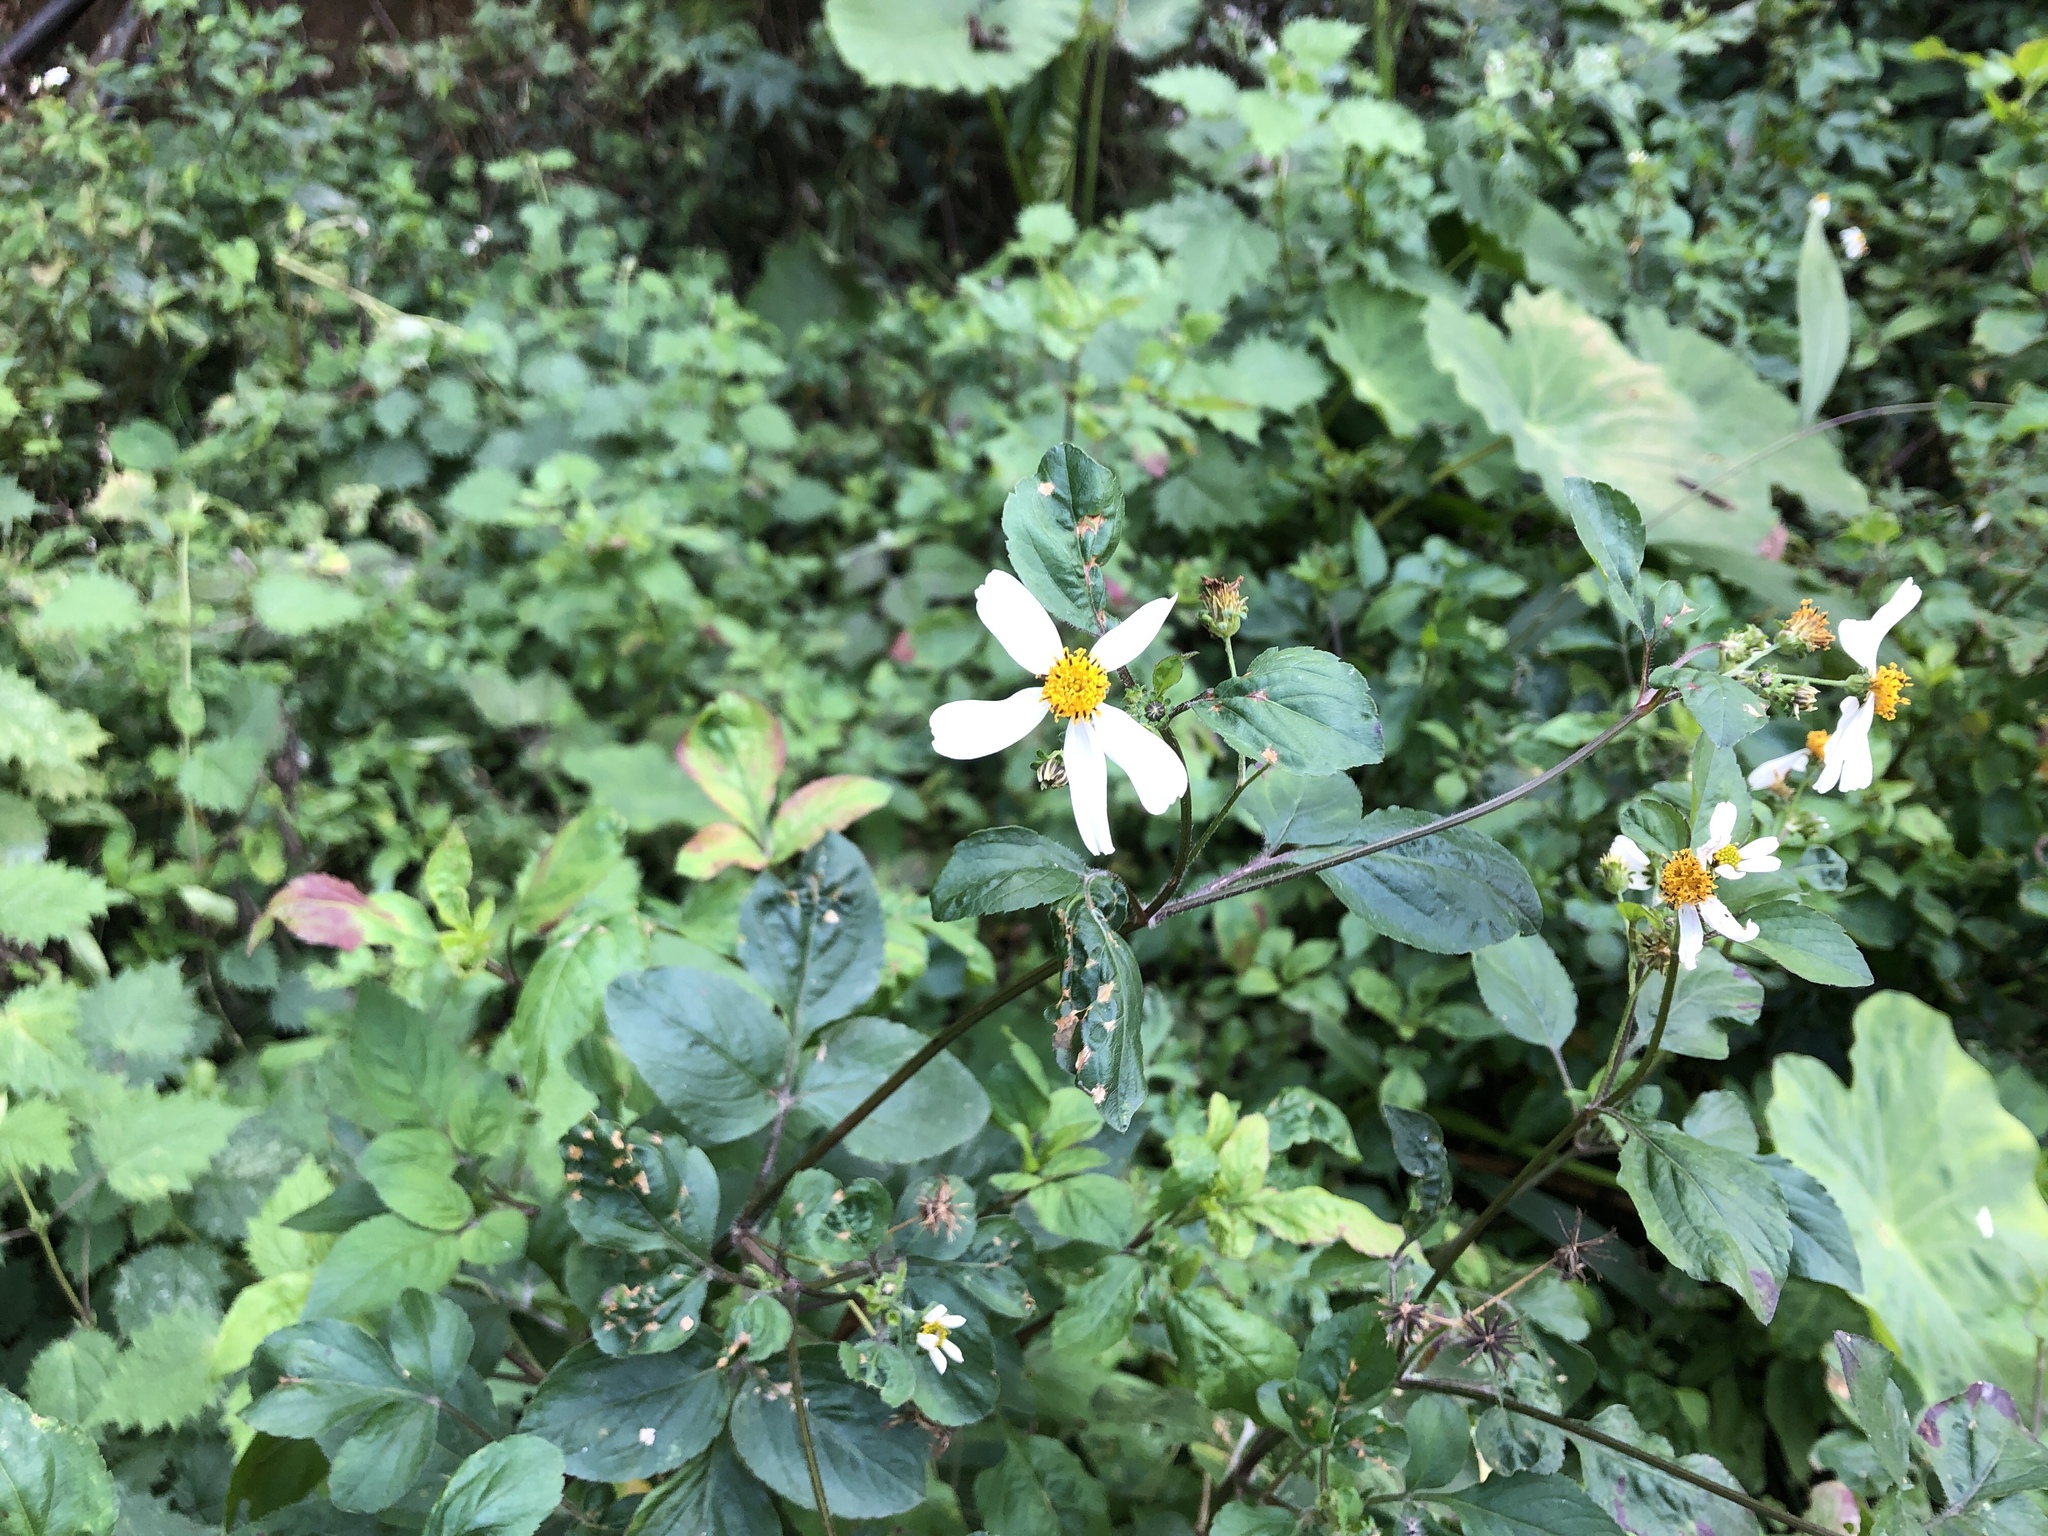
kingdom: Plantae
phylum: Tracheophyta
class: Magnoliopsida
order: Asterales
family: Asteraceae
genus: Bidens
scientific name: Bidens alba
